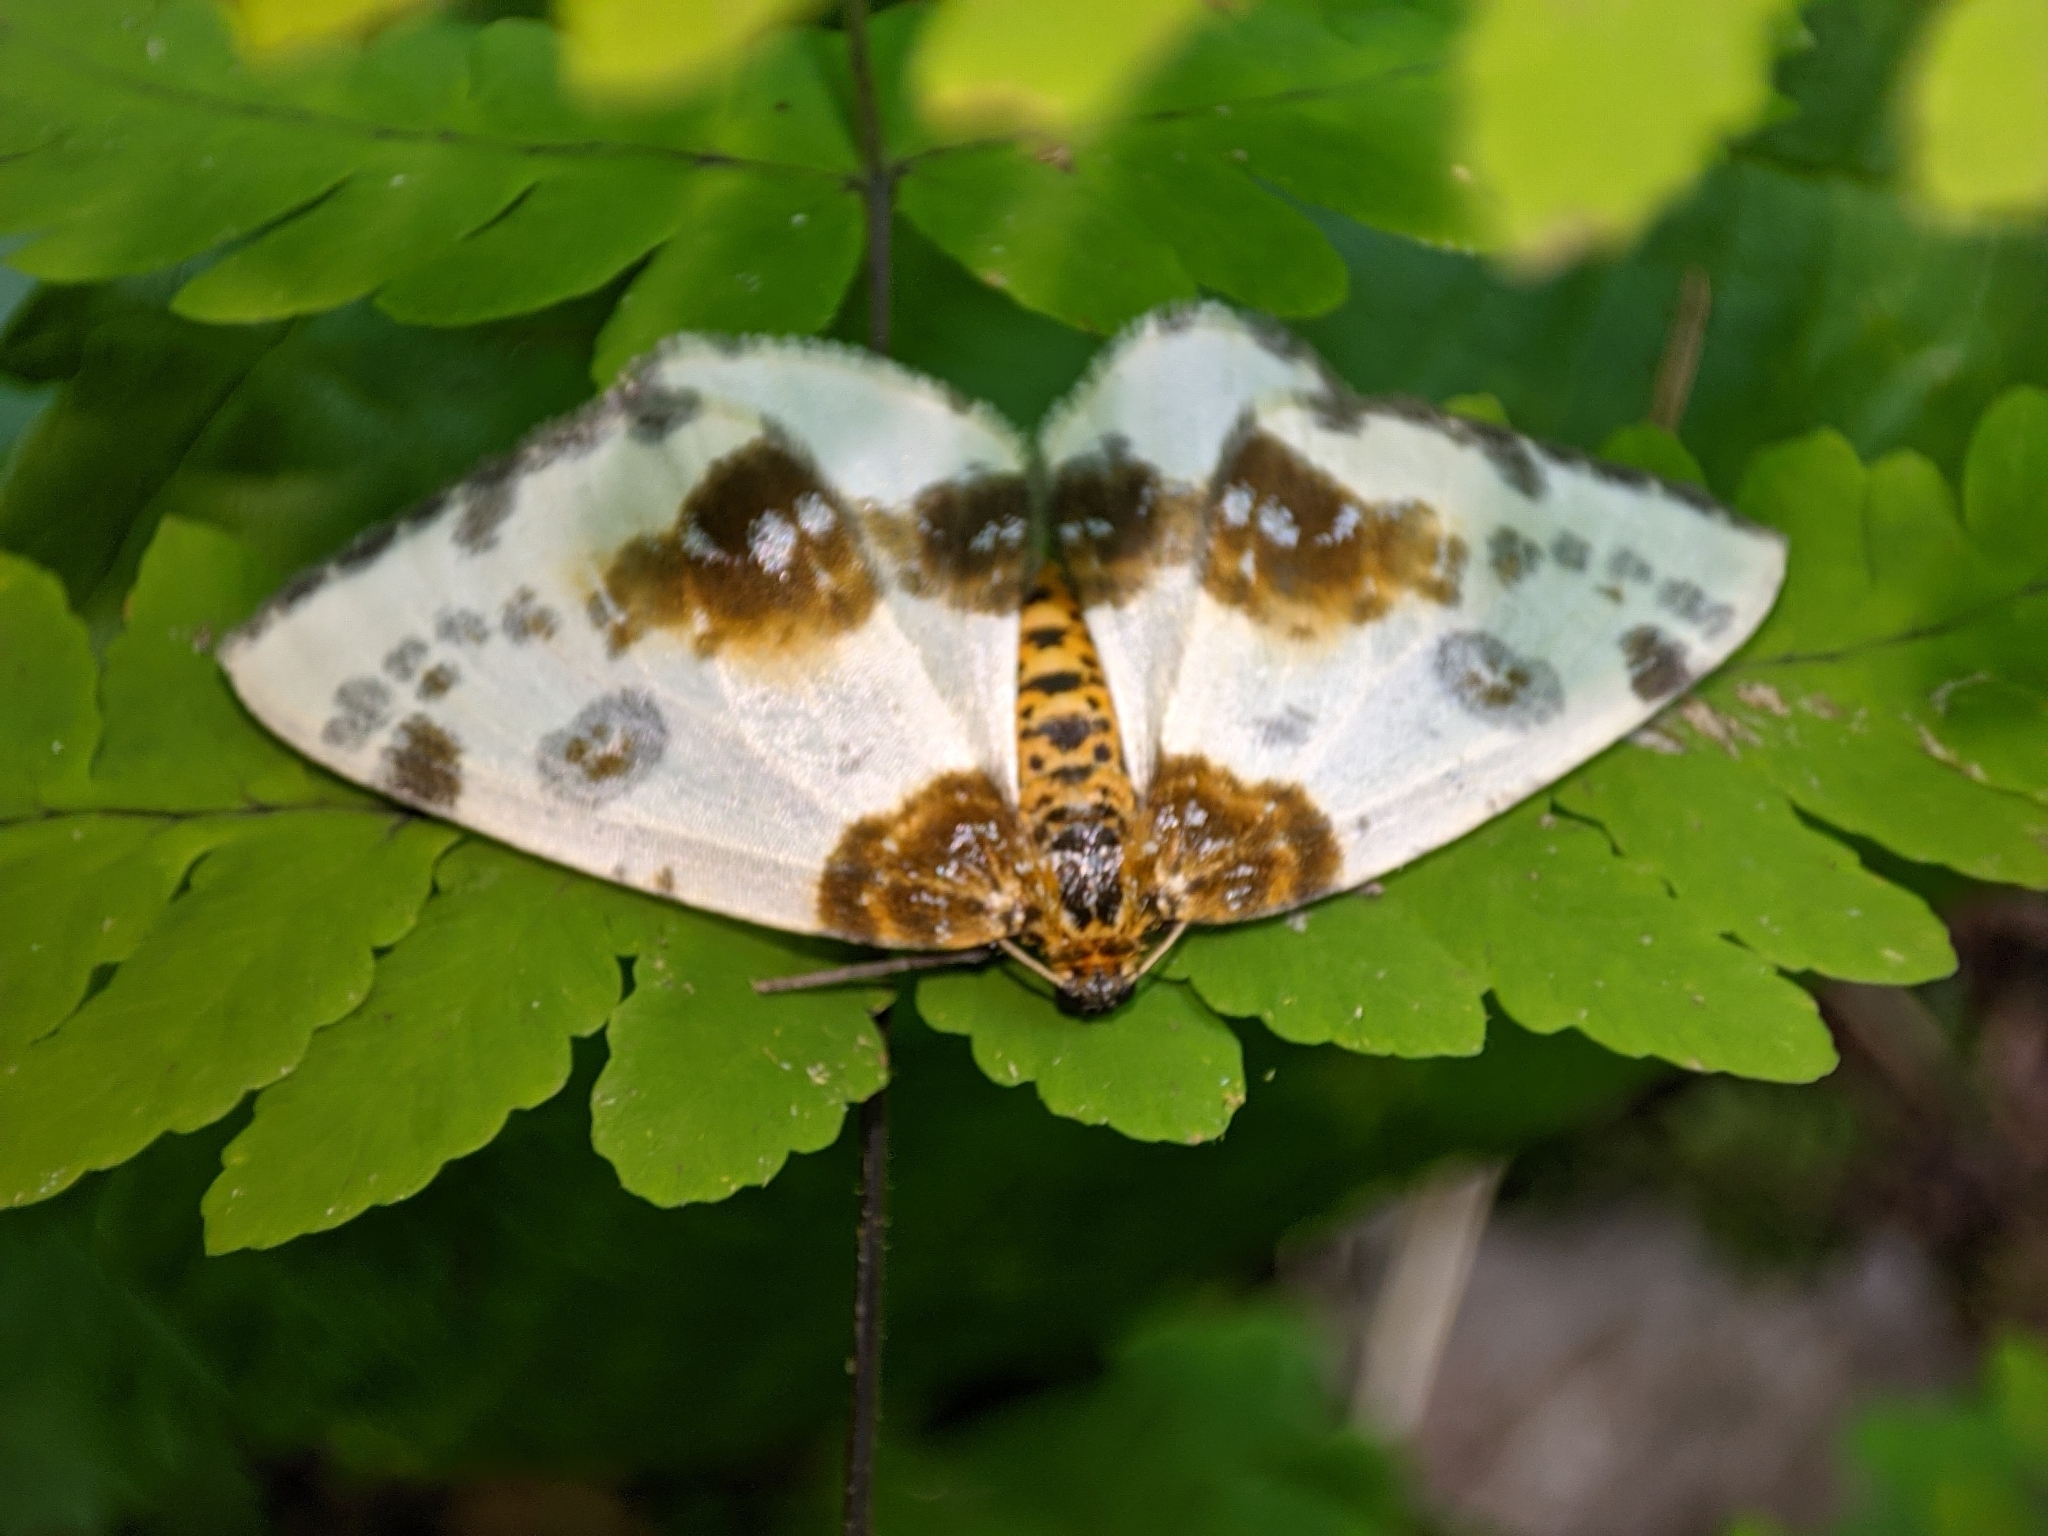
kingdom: Animalia
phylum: Arthropoda
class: Insecta
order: Lepidoptera
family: Geometridae
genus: Abraxas
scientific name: Abraxas sylvata
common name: Clouded magpie
